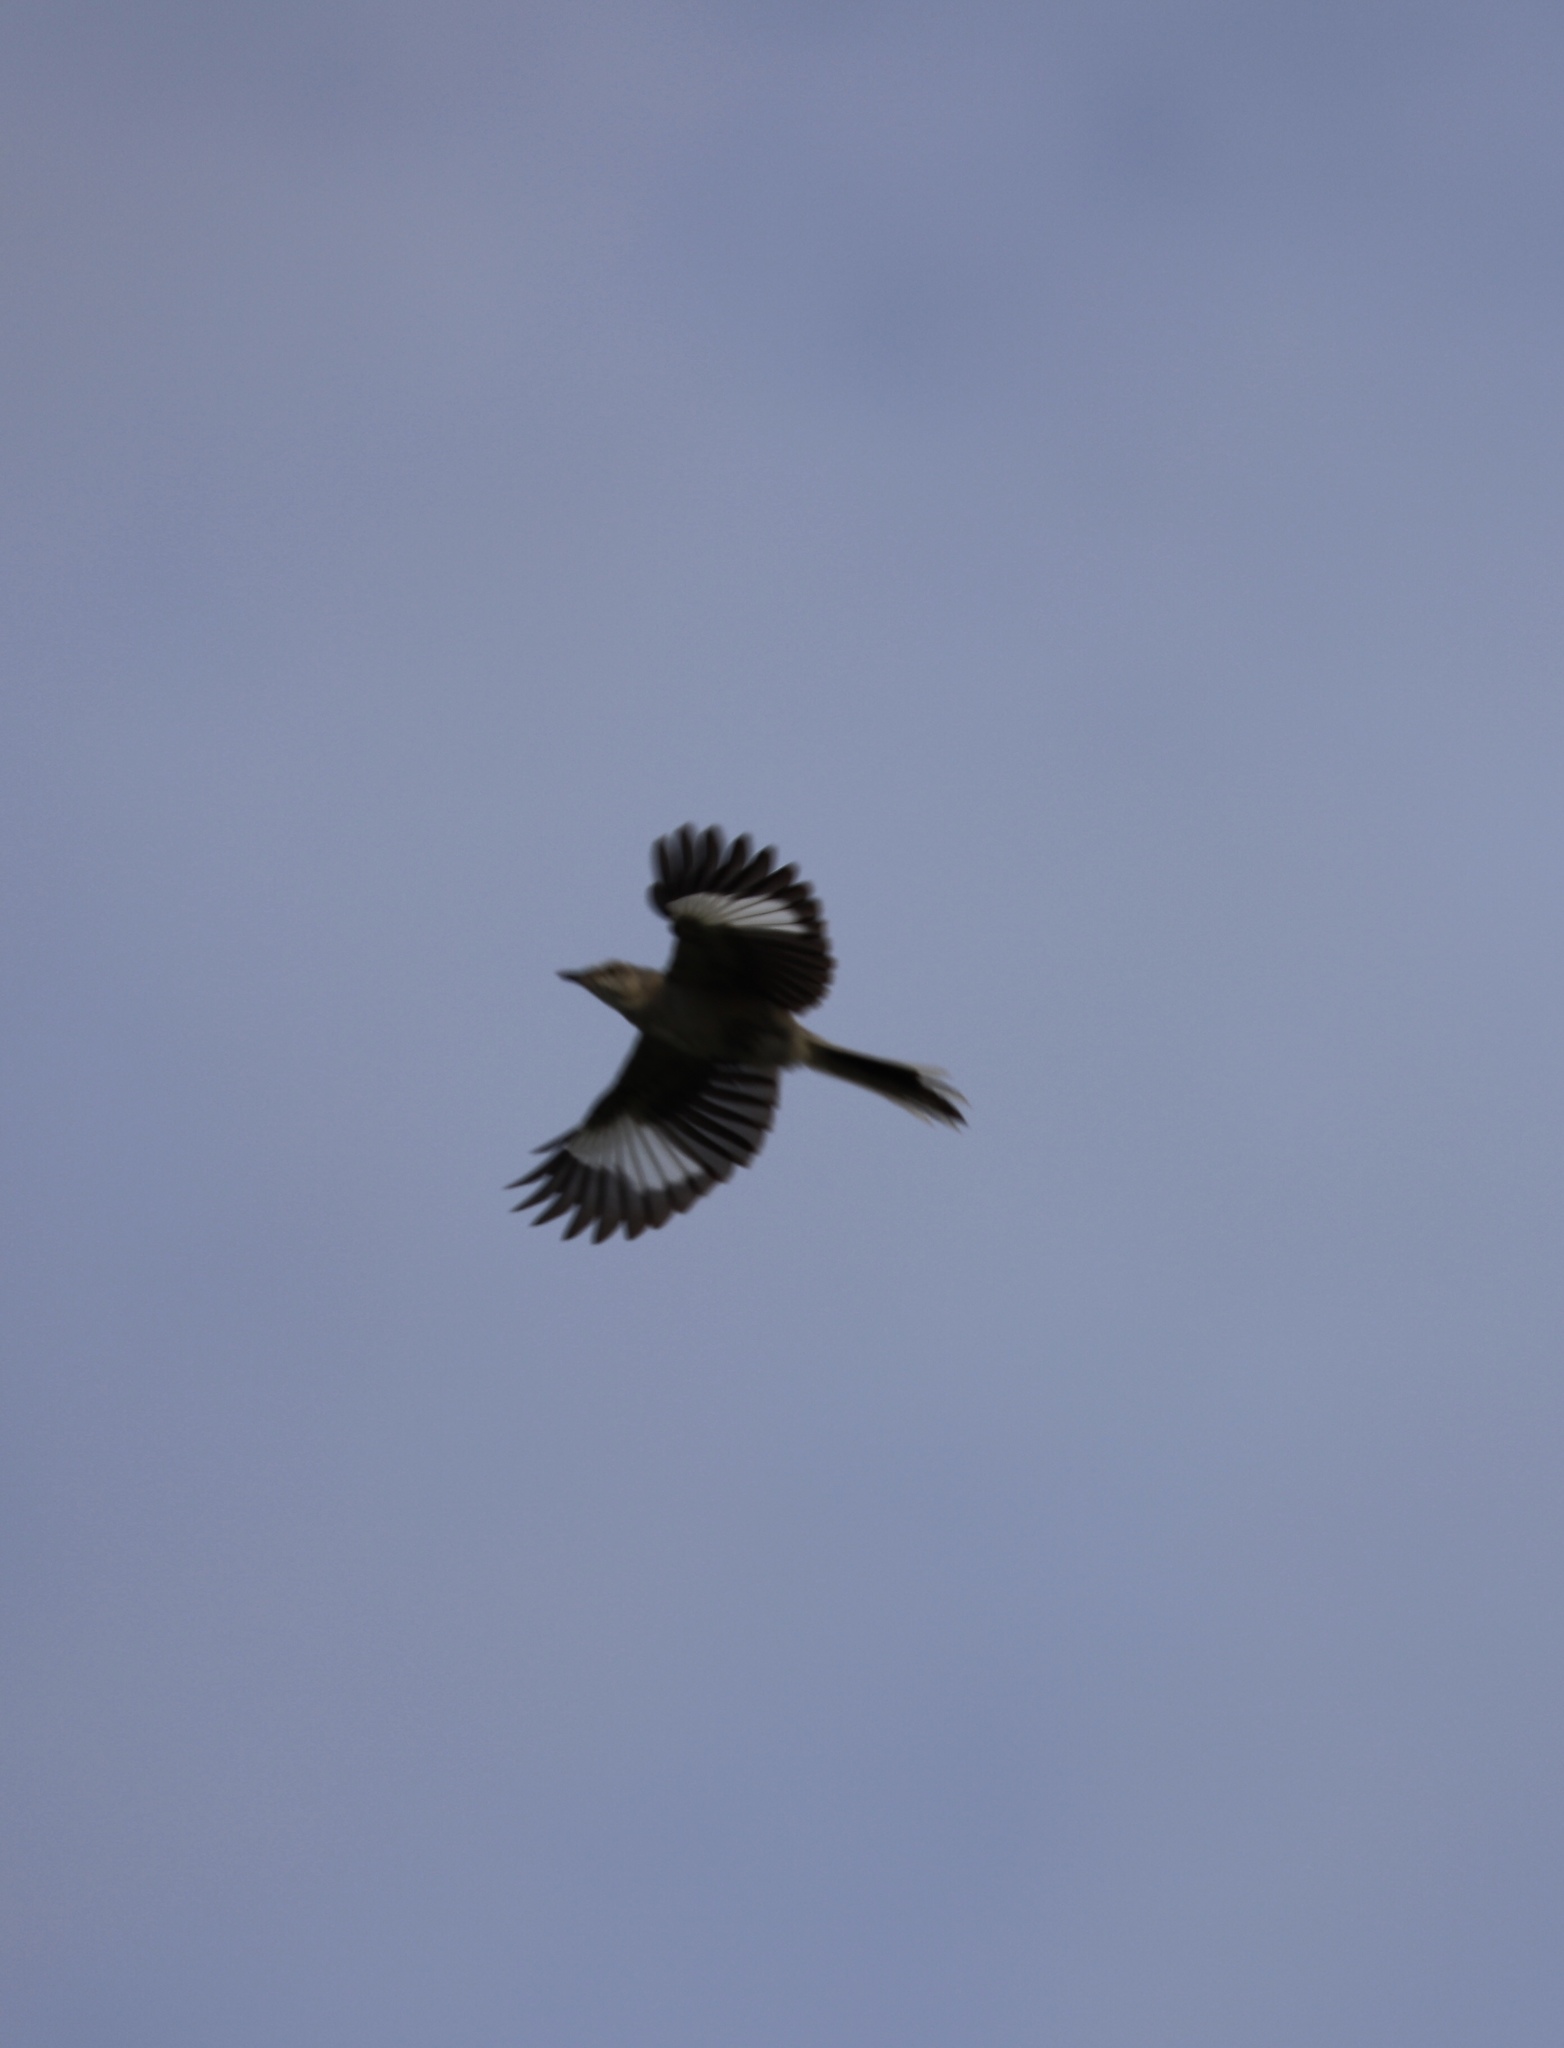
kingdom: Animalia
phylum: Chordata
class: Aves
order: Passeriformes
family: Mimidae
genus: Mimus
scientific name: Mimus polyglottos
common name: Northern mockingbird
